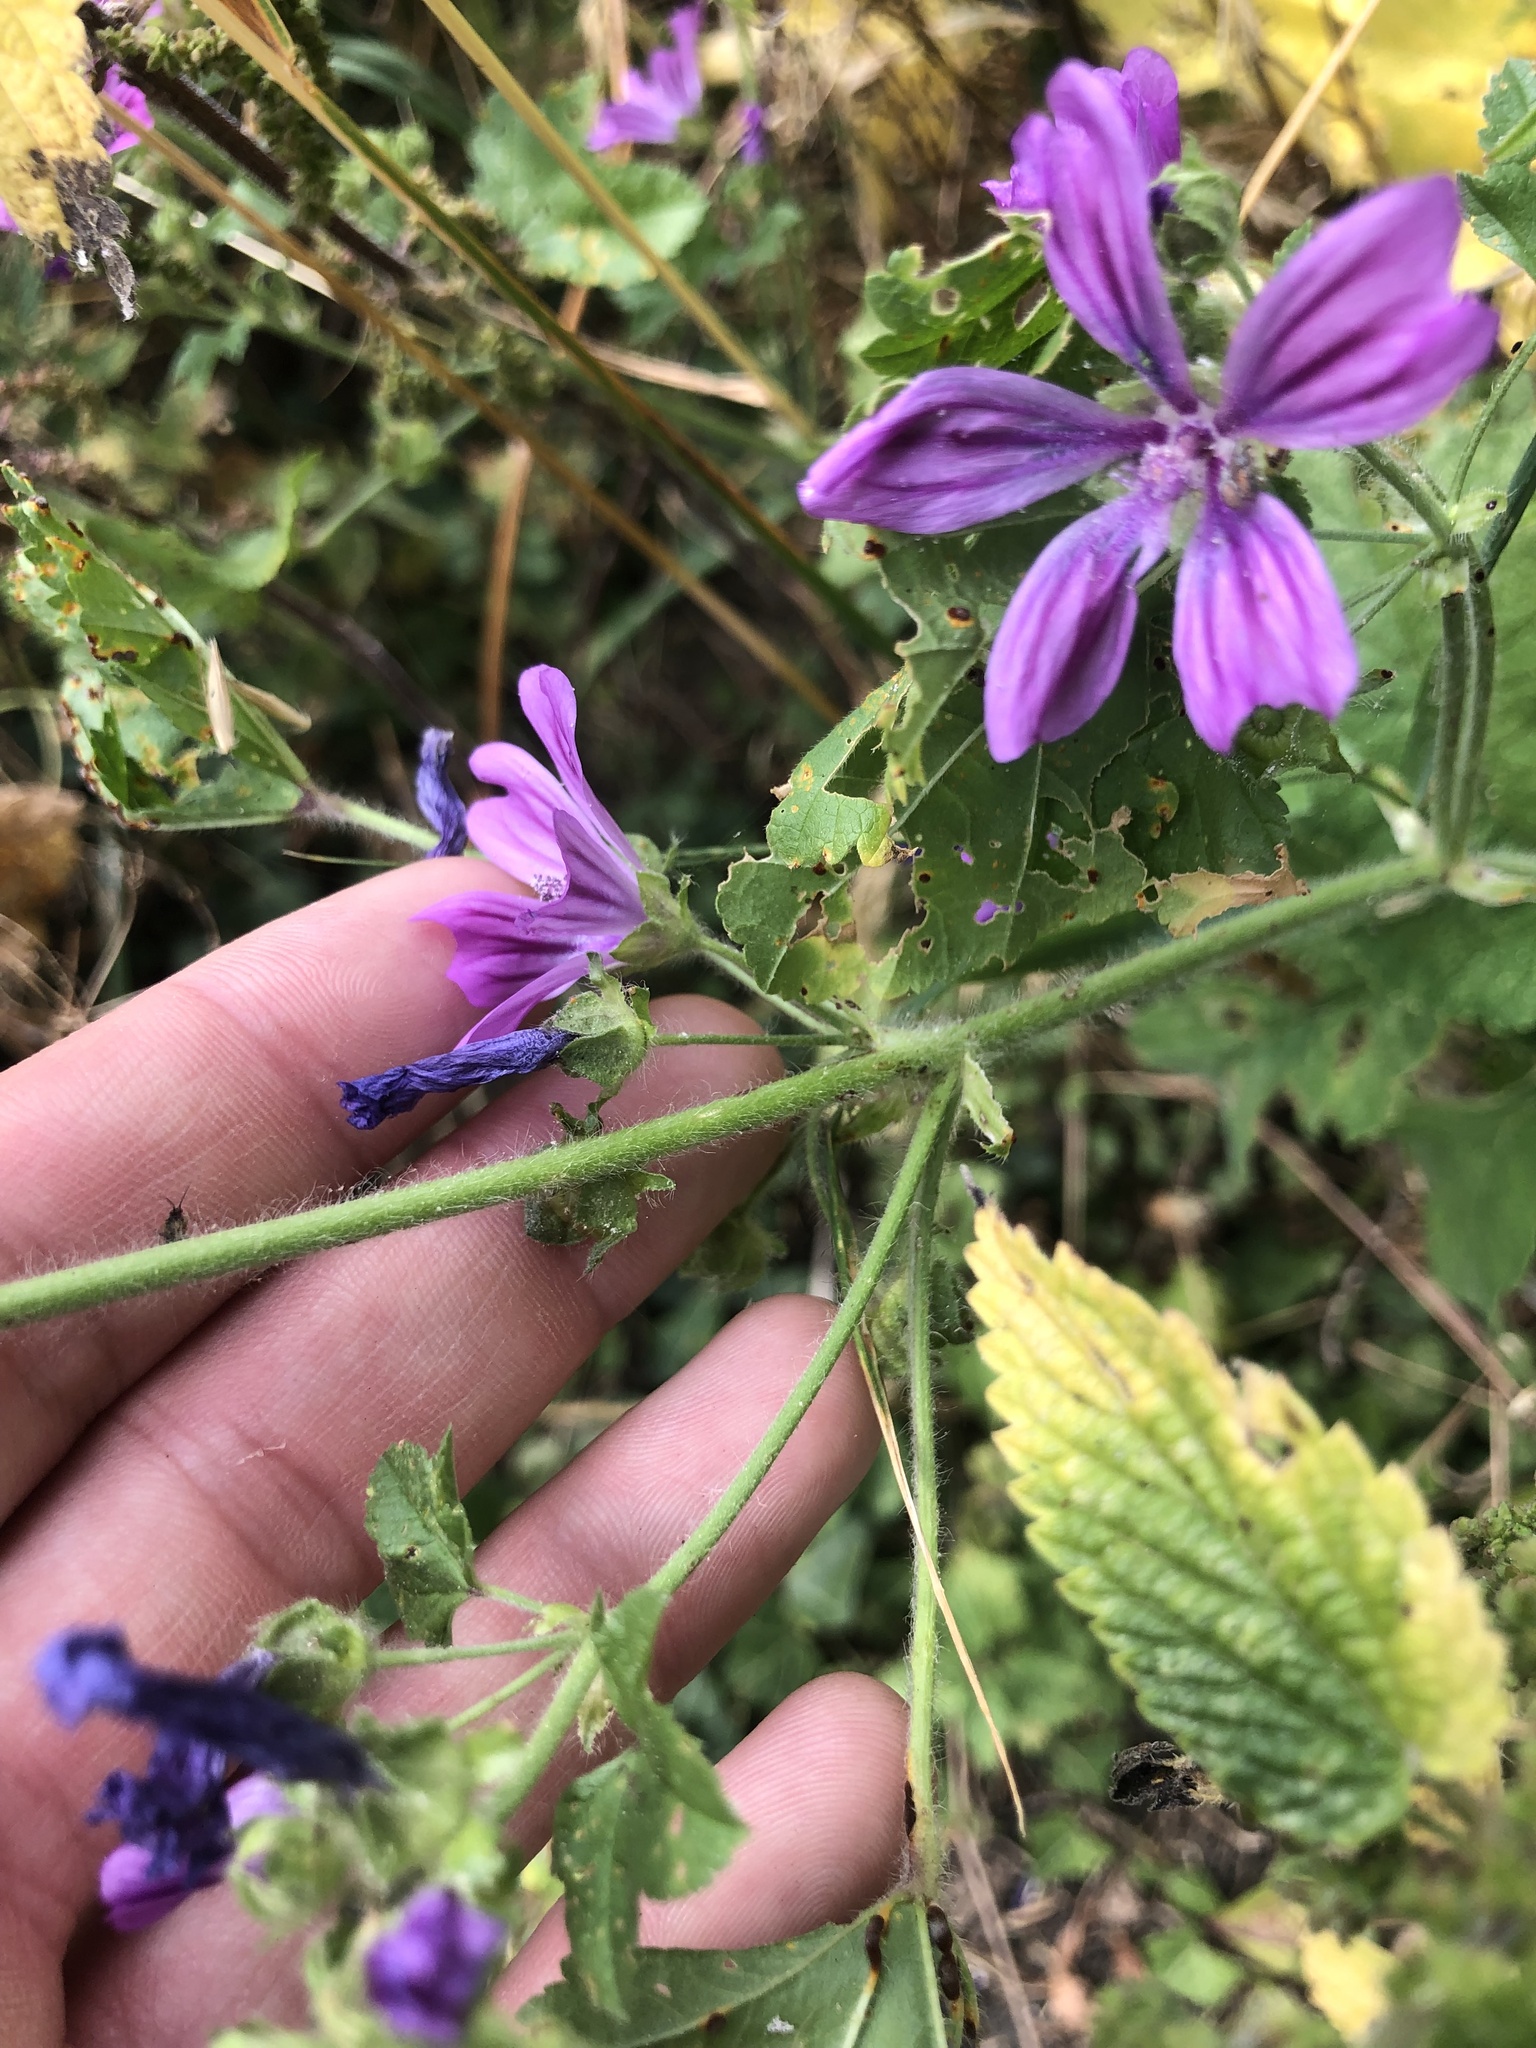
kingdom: Plantae
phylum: Tracheophyta
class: Magnoliopsida
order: Malvales
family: Malvaceae
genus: Malva
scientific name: Malva sylvestris
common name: Common mallow
